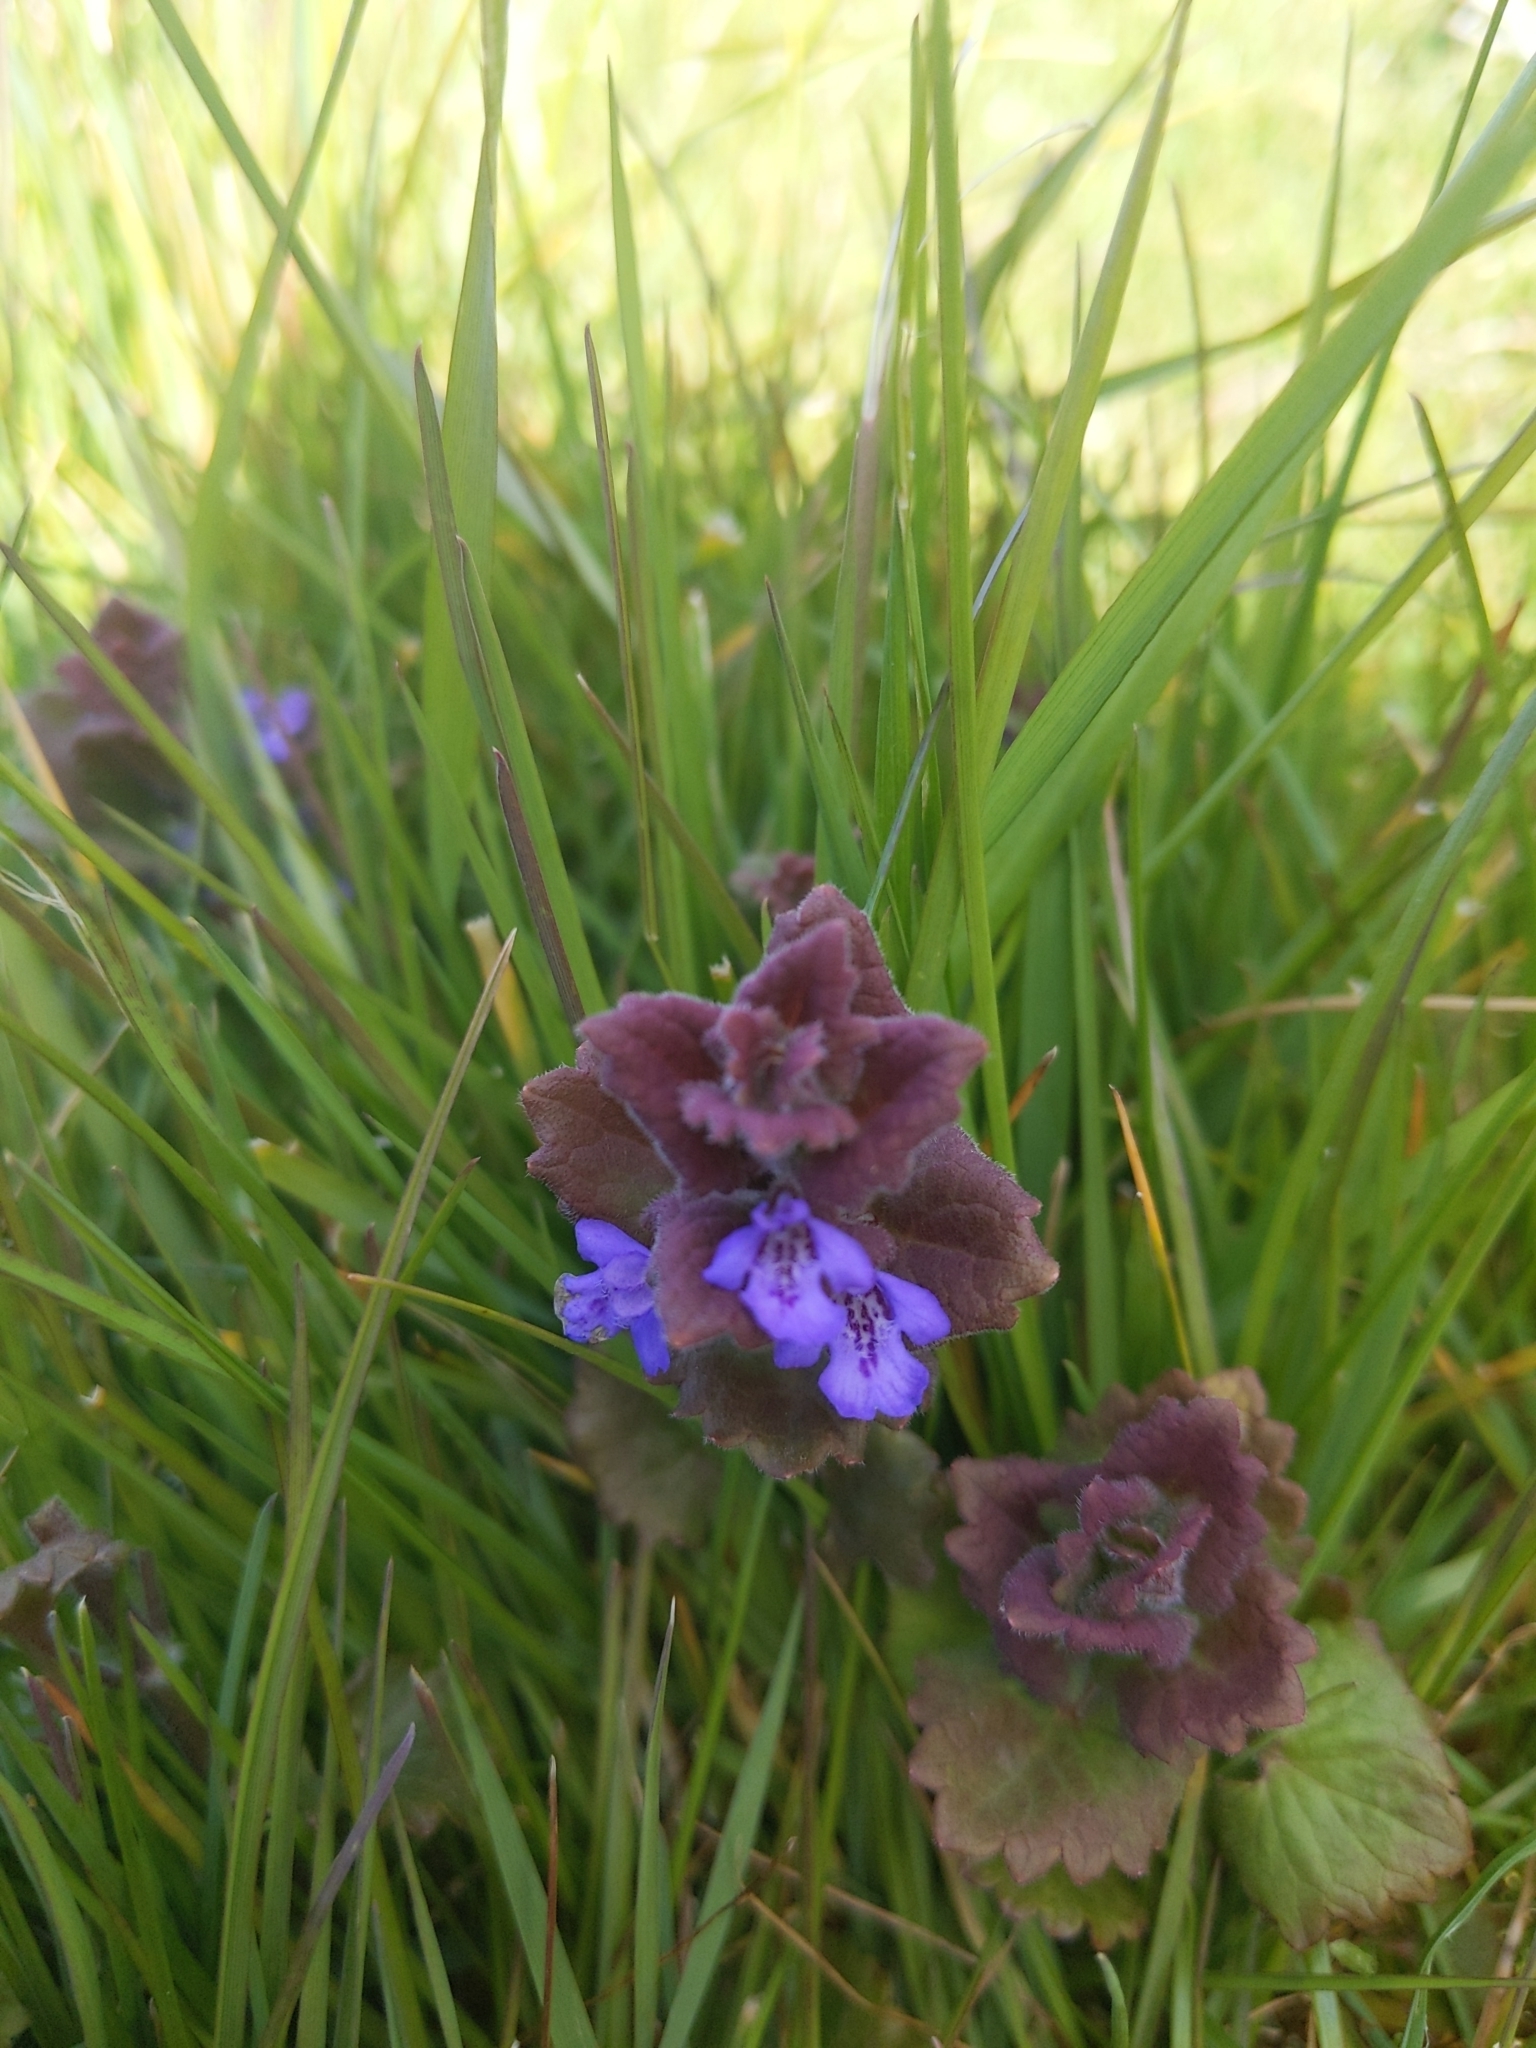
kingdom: Plantae
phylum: Tracheophyta
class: Magnoliopsida
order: Lamiales
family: Lamiaceae
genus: Glechoma
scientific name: Glechoma hederacea
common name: Ground ivy
